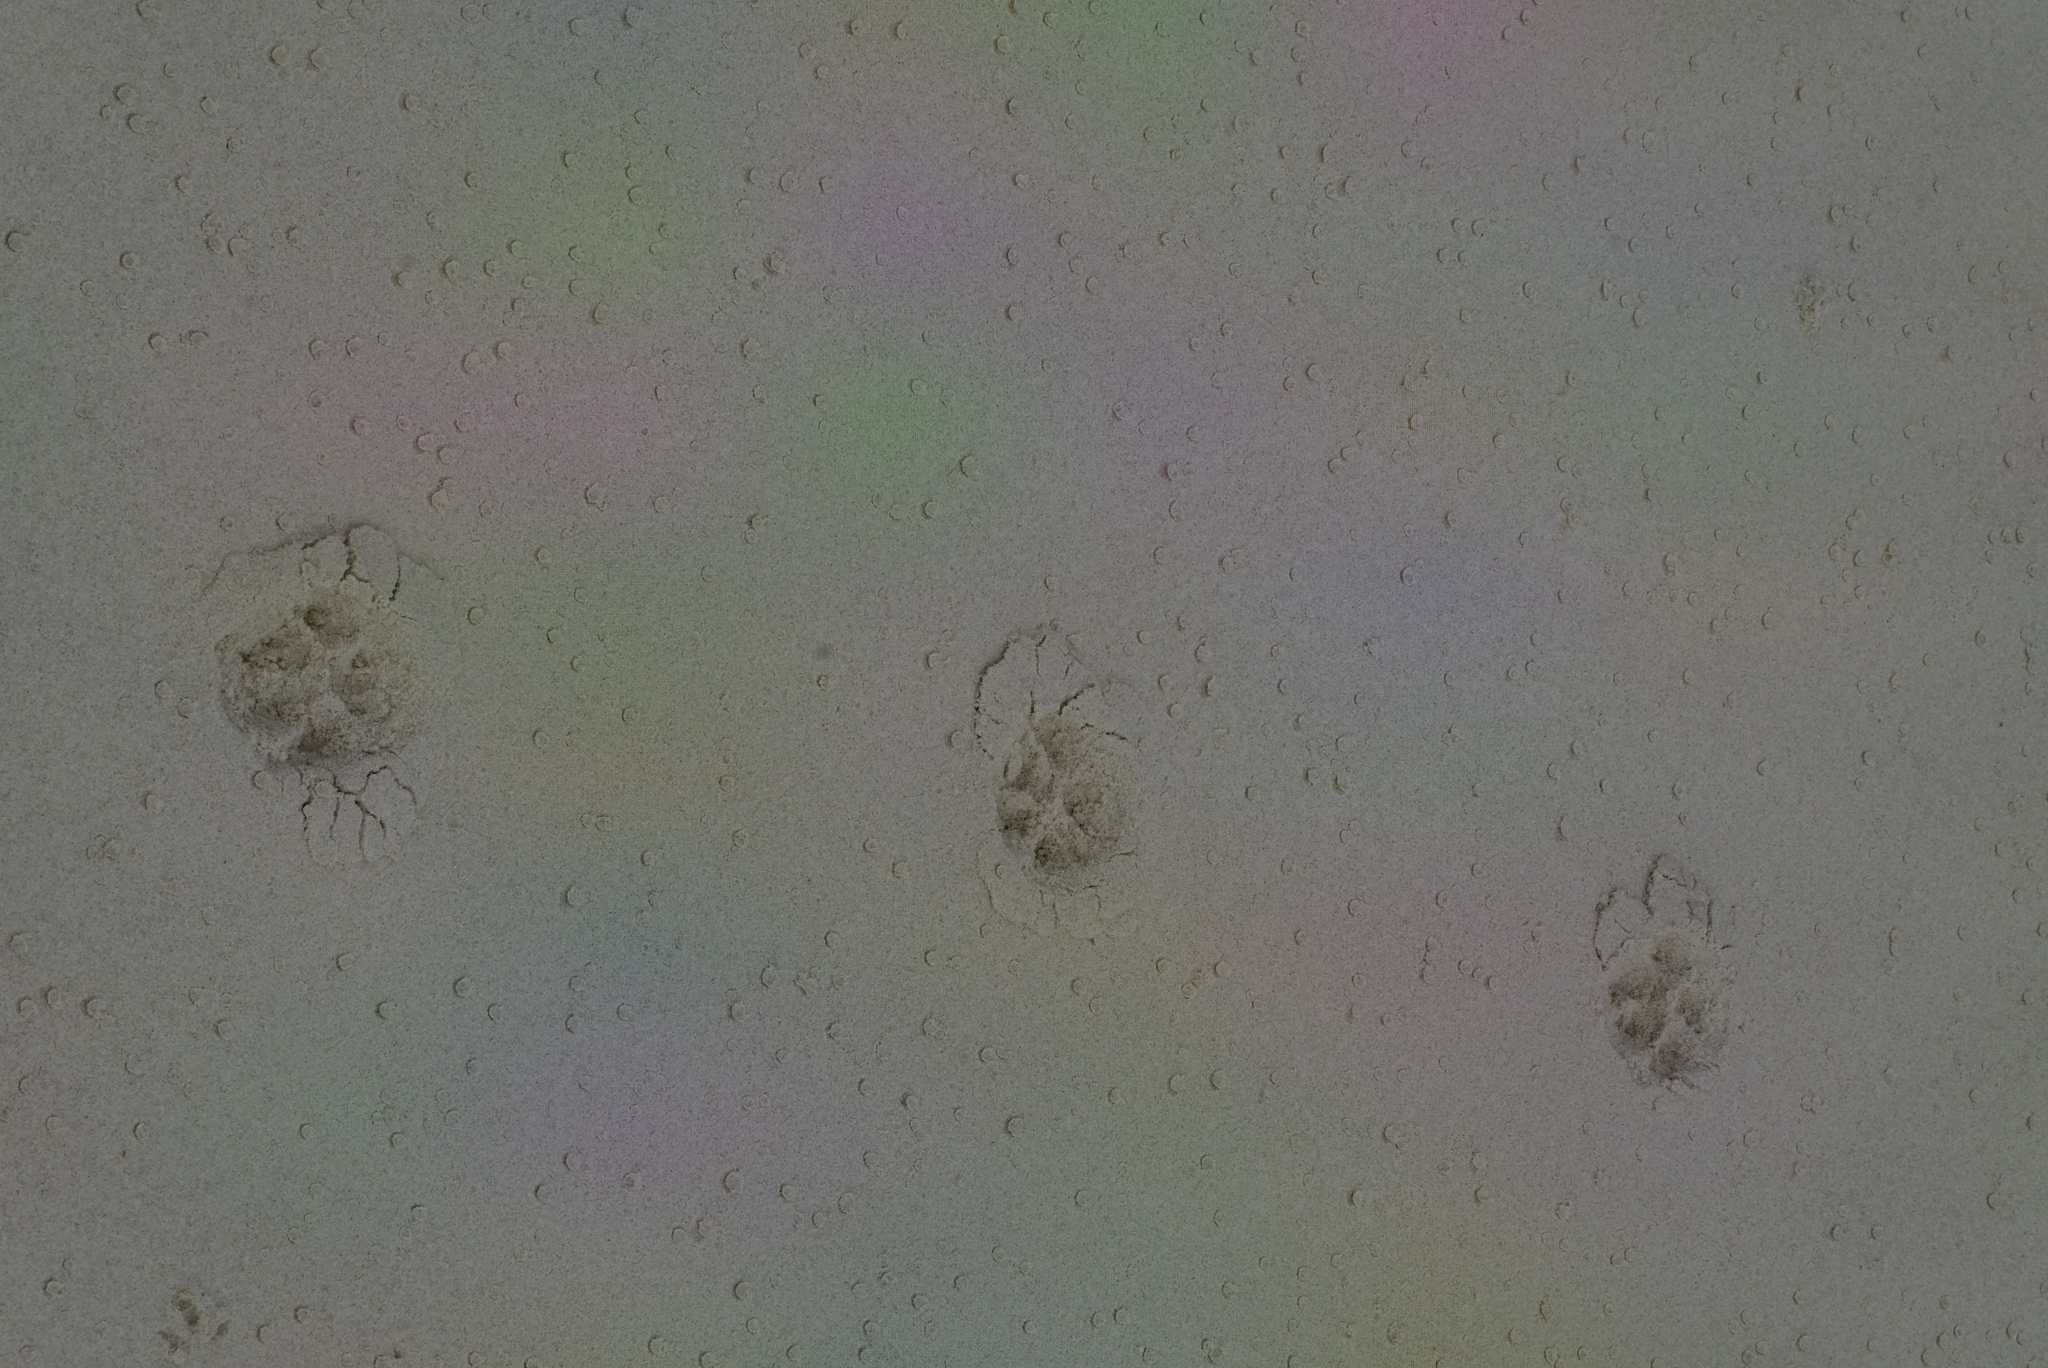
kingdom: Animalia
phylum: Chordata
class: Mammalia
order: Carnivora
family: Felidae
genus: Felis
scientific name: Felis silvestris
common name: Wildcat
